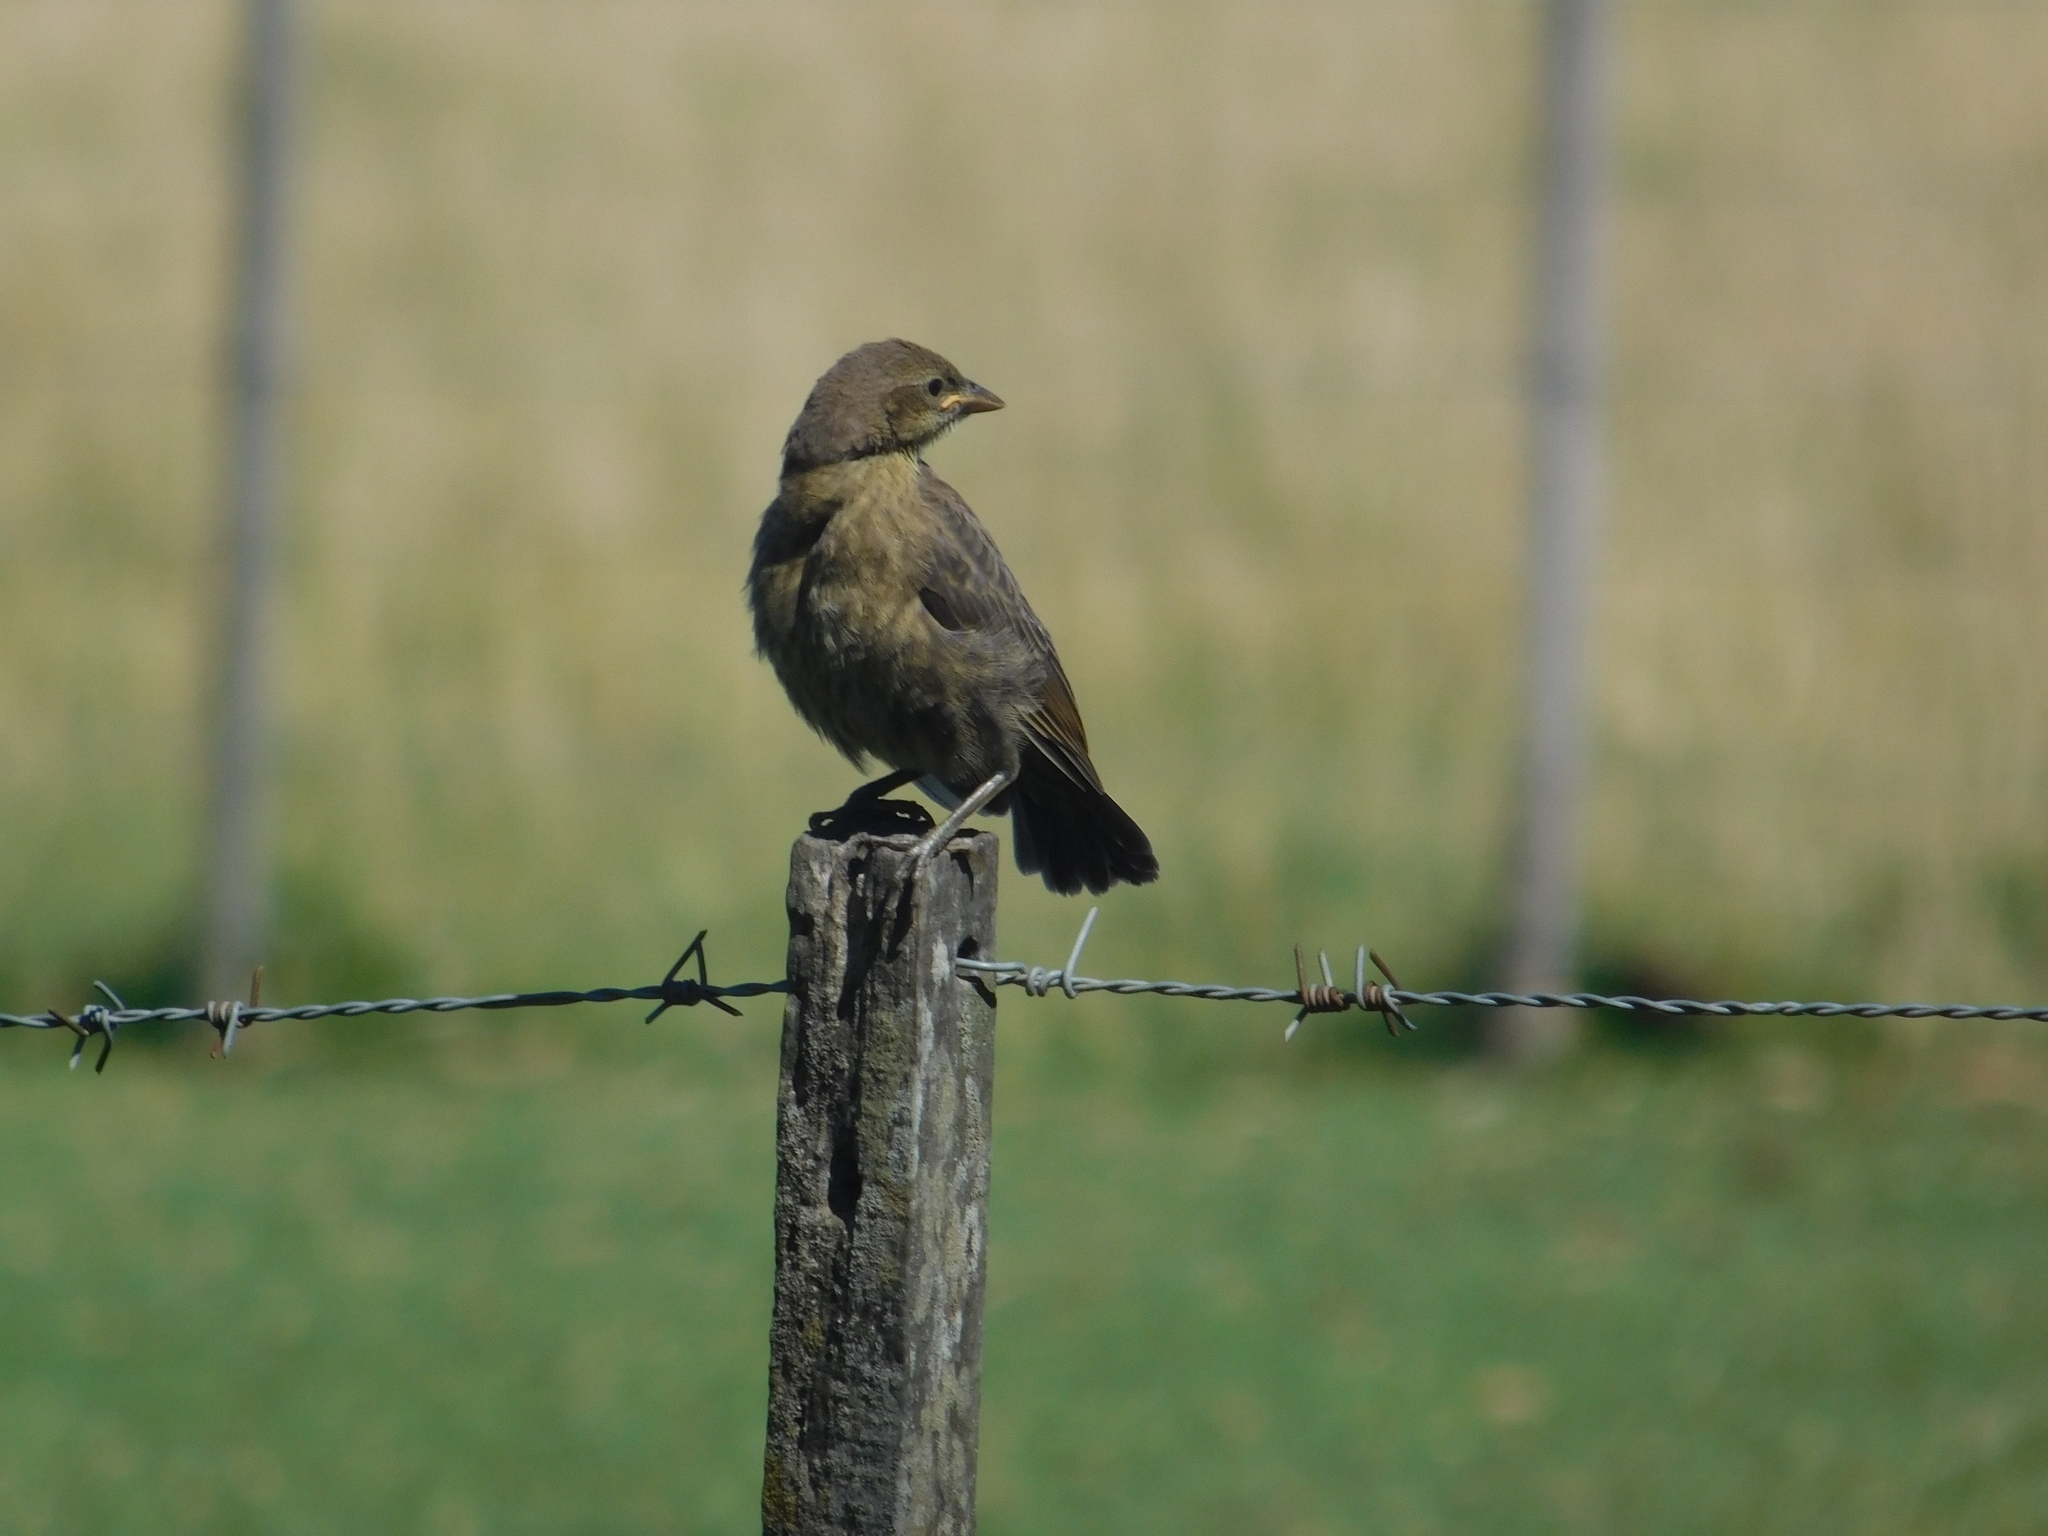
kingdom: Animalia
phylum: Chordata
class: Aves
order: Passeriformes
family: Icteridae
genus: Molothrus
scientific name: Molothrus bonariensis
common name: Shiny cowbird
